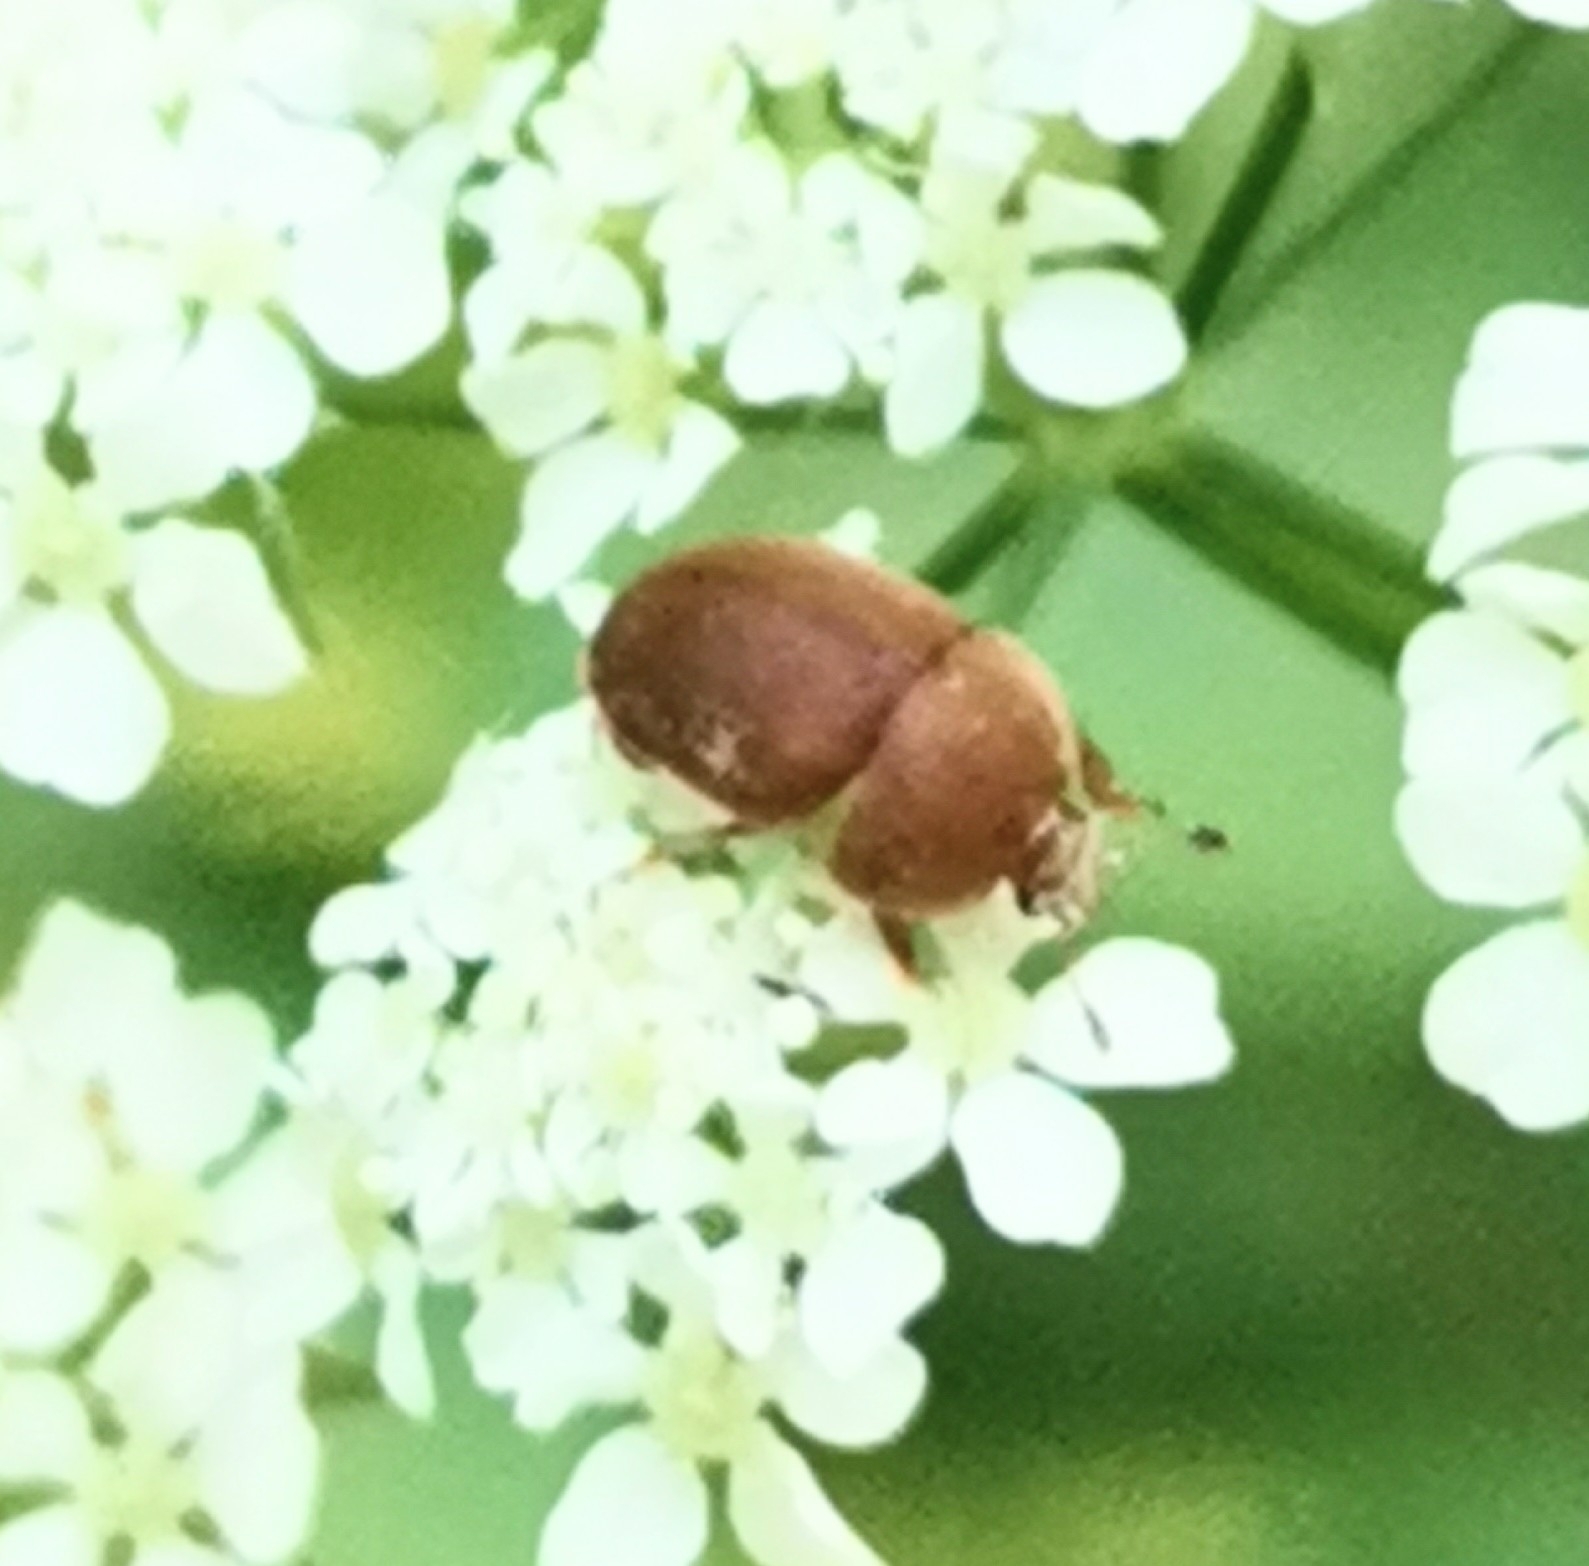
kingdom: Animalia
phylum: Arthropoda
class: Insecta
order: Coleoptera
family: Nitidulidae
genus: Cychramus
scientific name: Cychramus luteus
